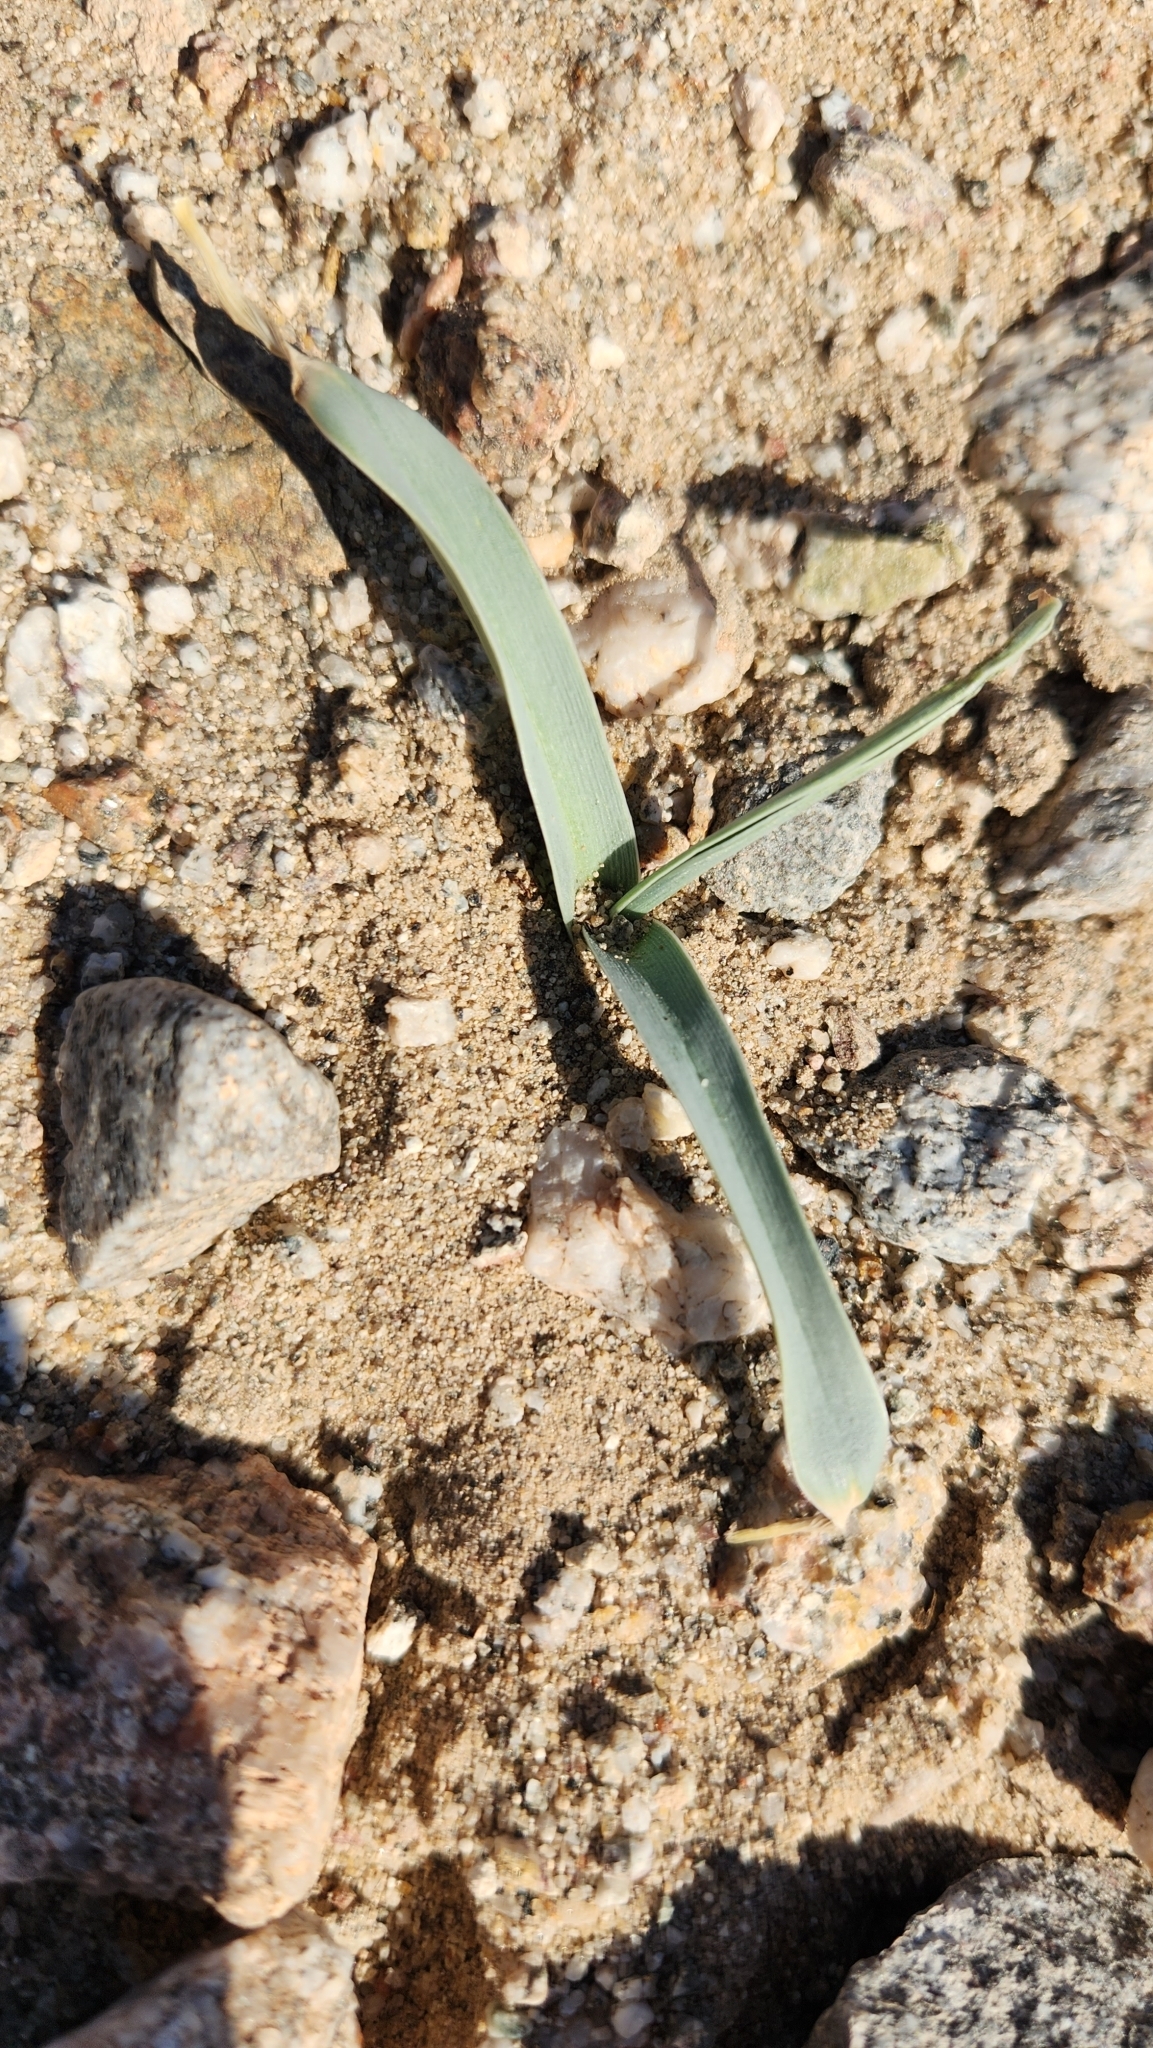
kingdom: Plantae
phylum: Tracheophyta
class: Liliopsida
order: Asparagales
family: Asparagaceae
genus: Hesperocallis
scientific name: Hesperocallis undulata
